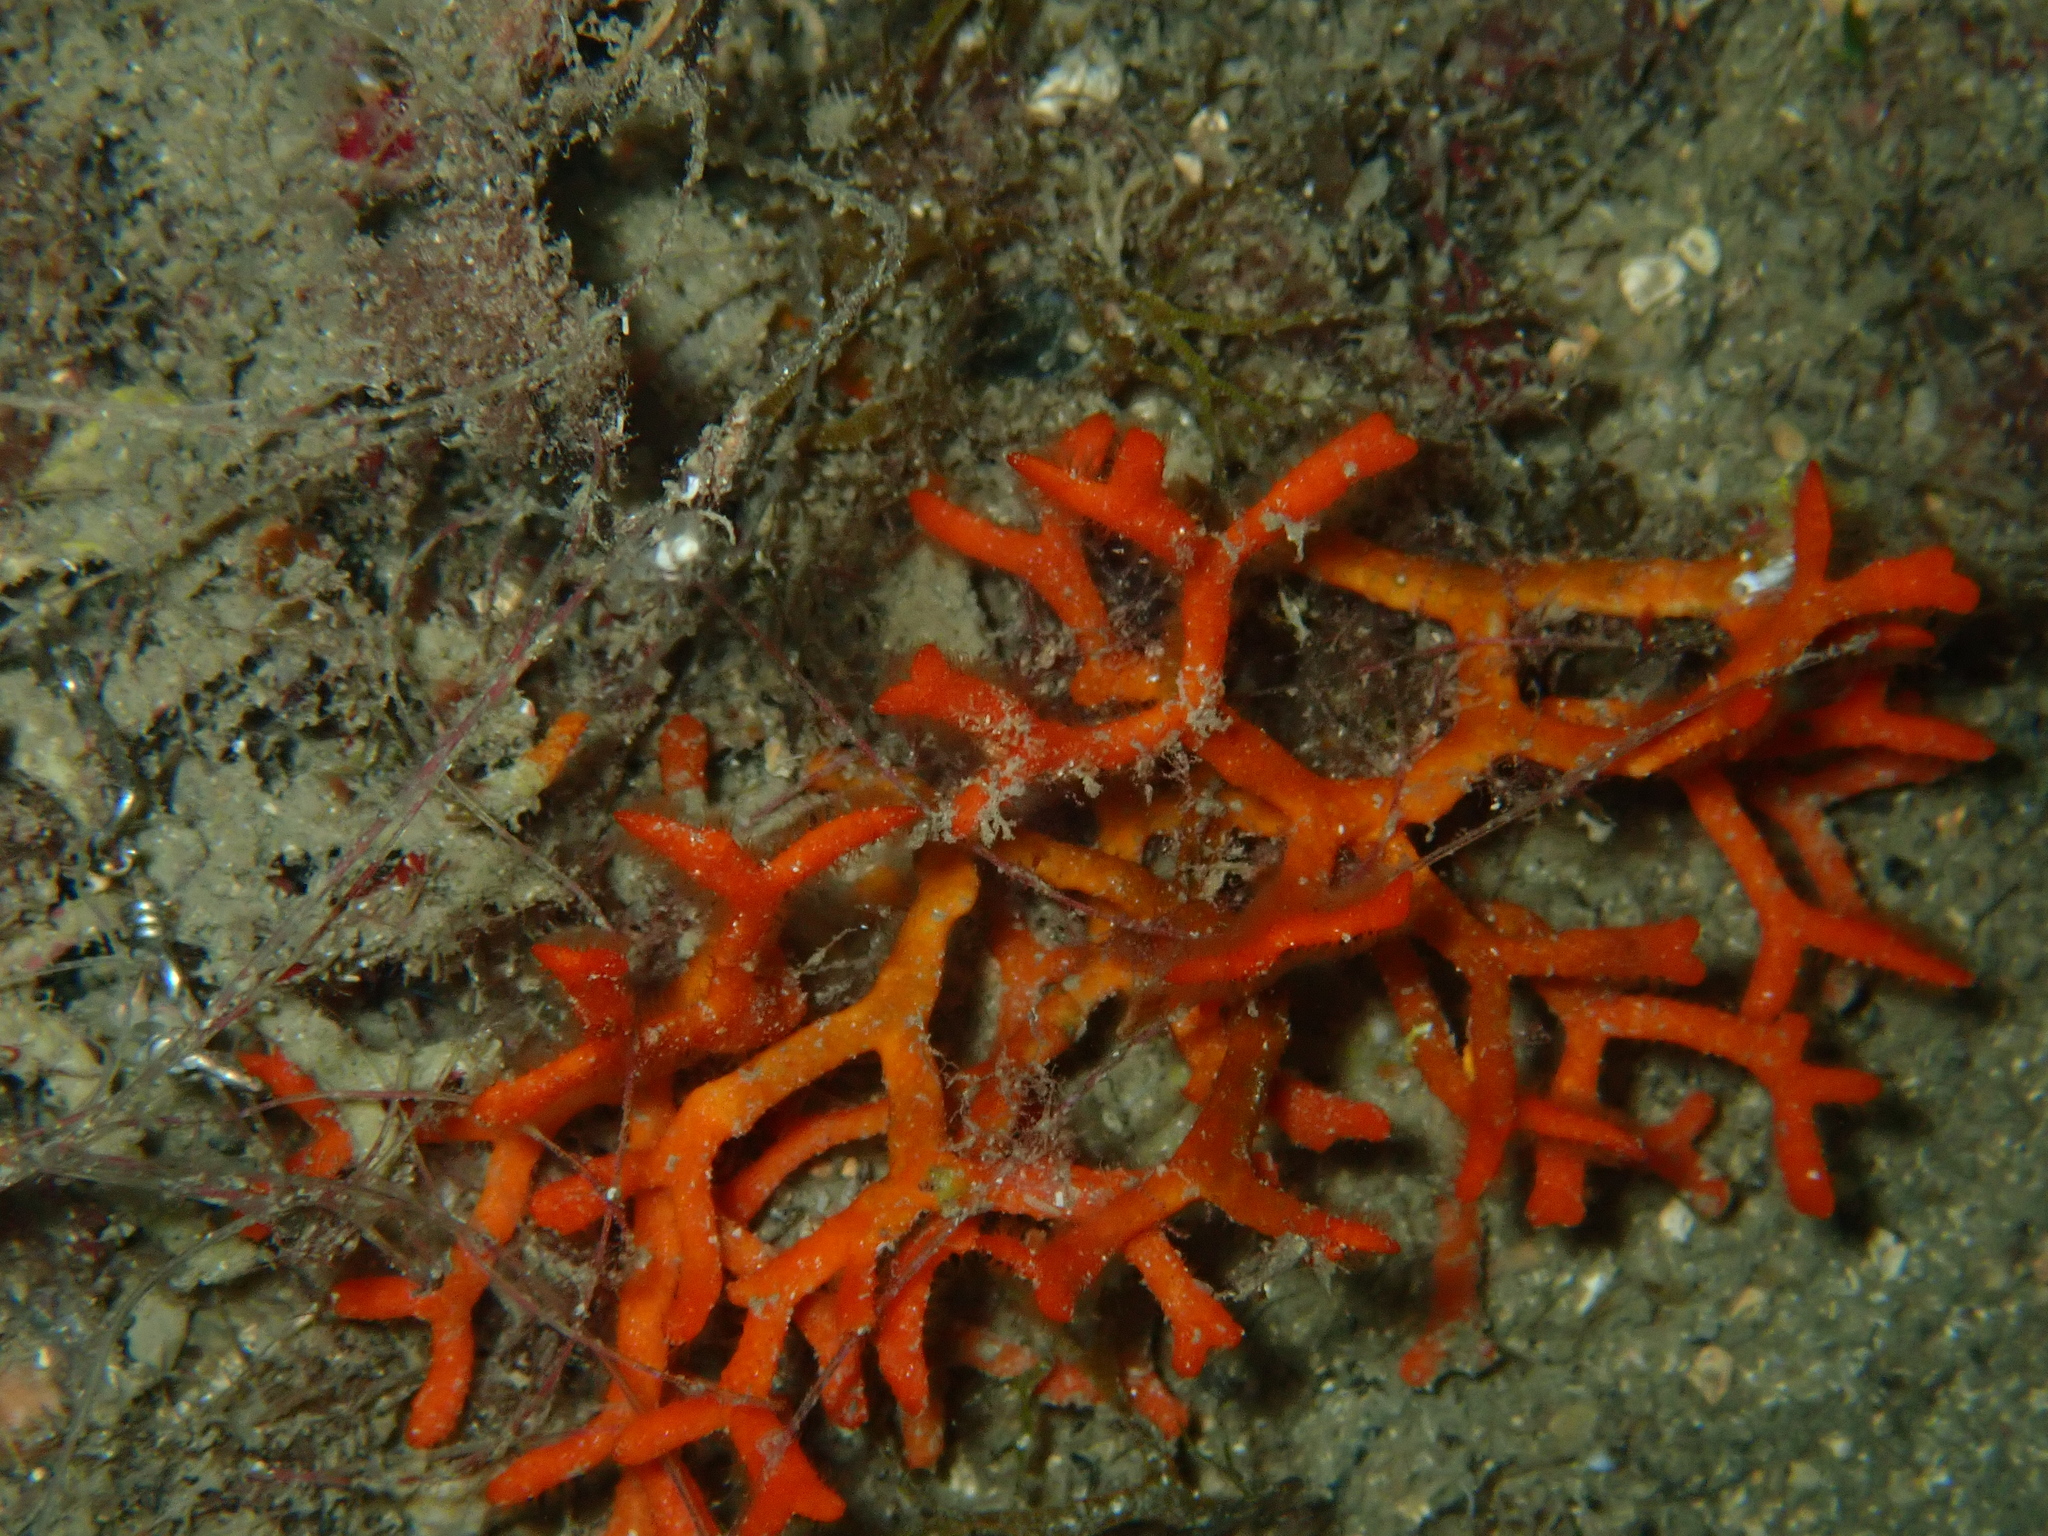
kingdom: Animalia
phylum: Bryozoa
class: Gymnolaemata
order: Cheilostomatida
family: Smittinidae
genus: Smittina
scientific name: Smittina cervicornis
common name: Deer-antler crust
